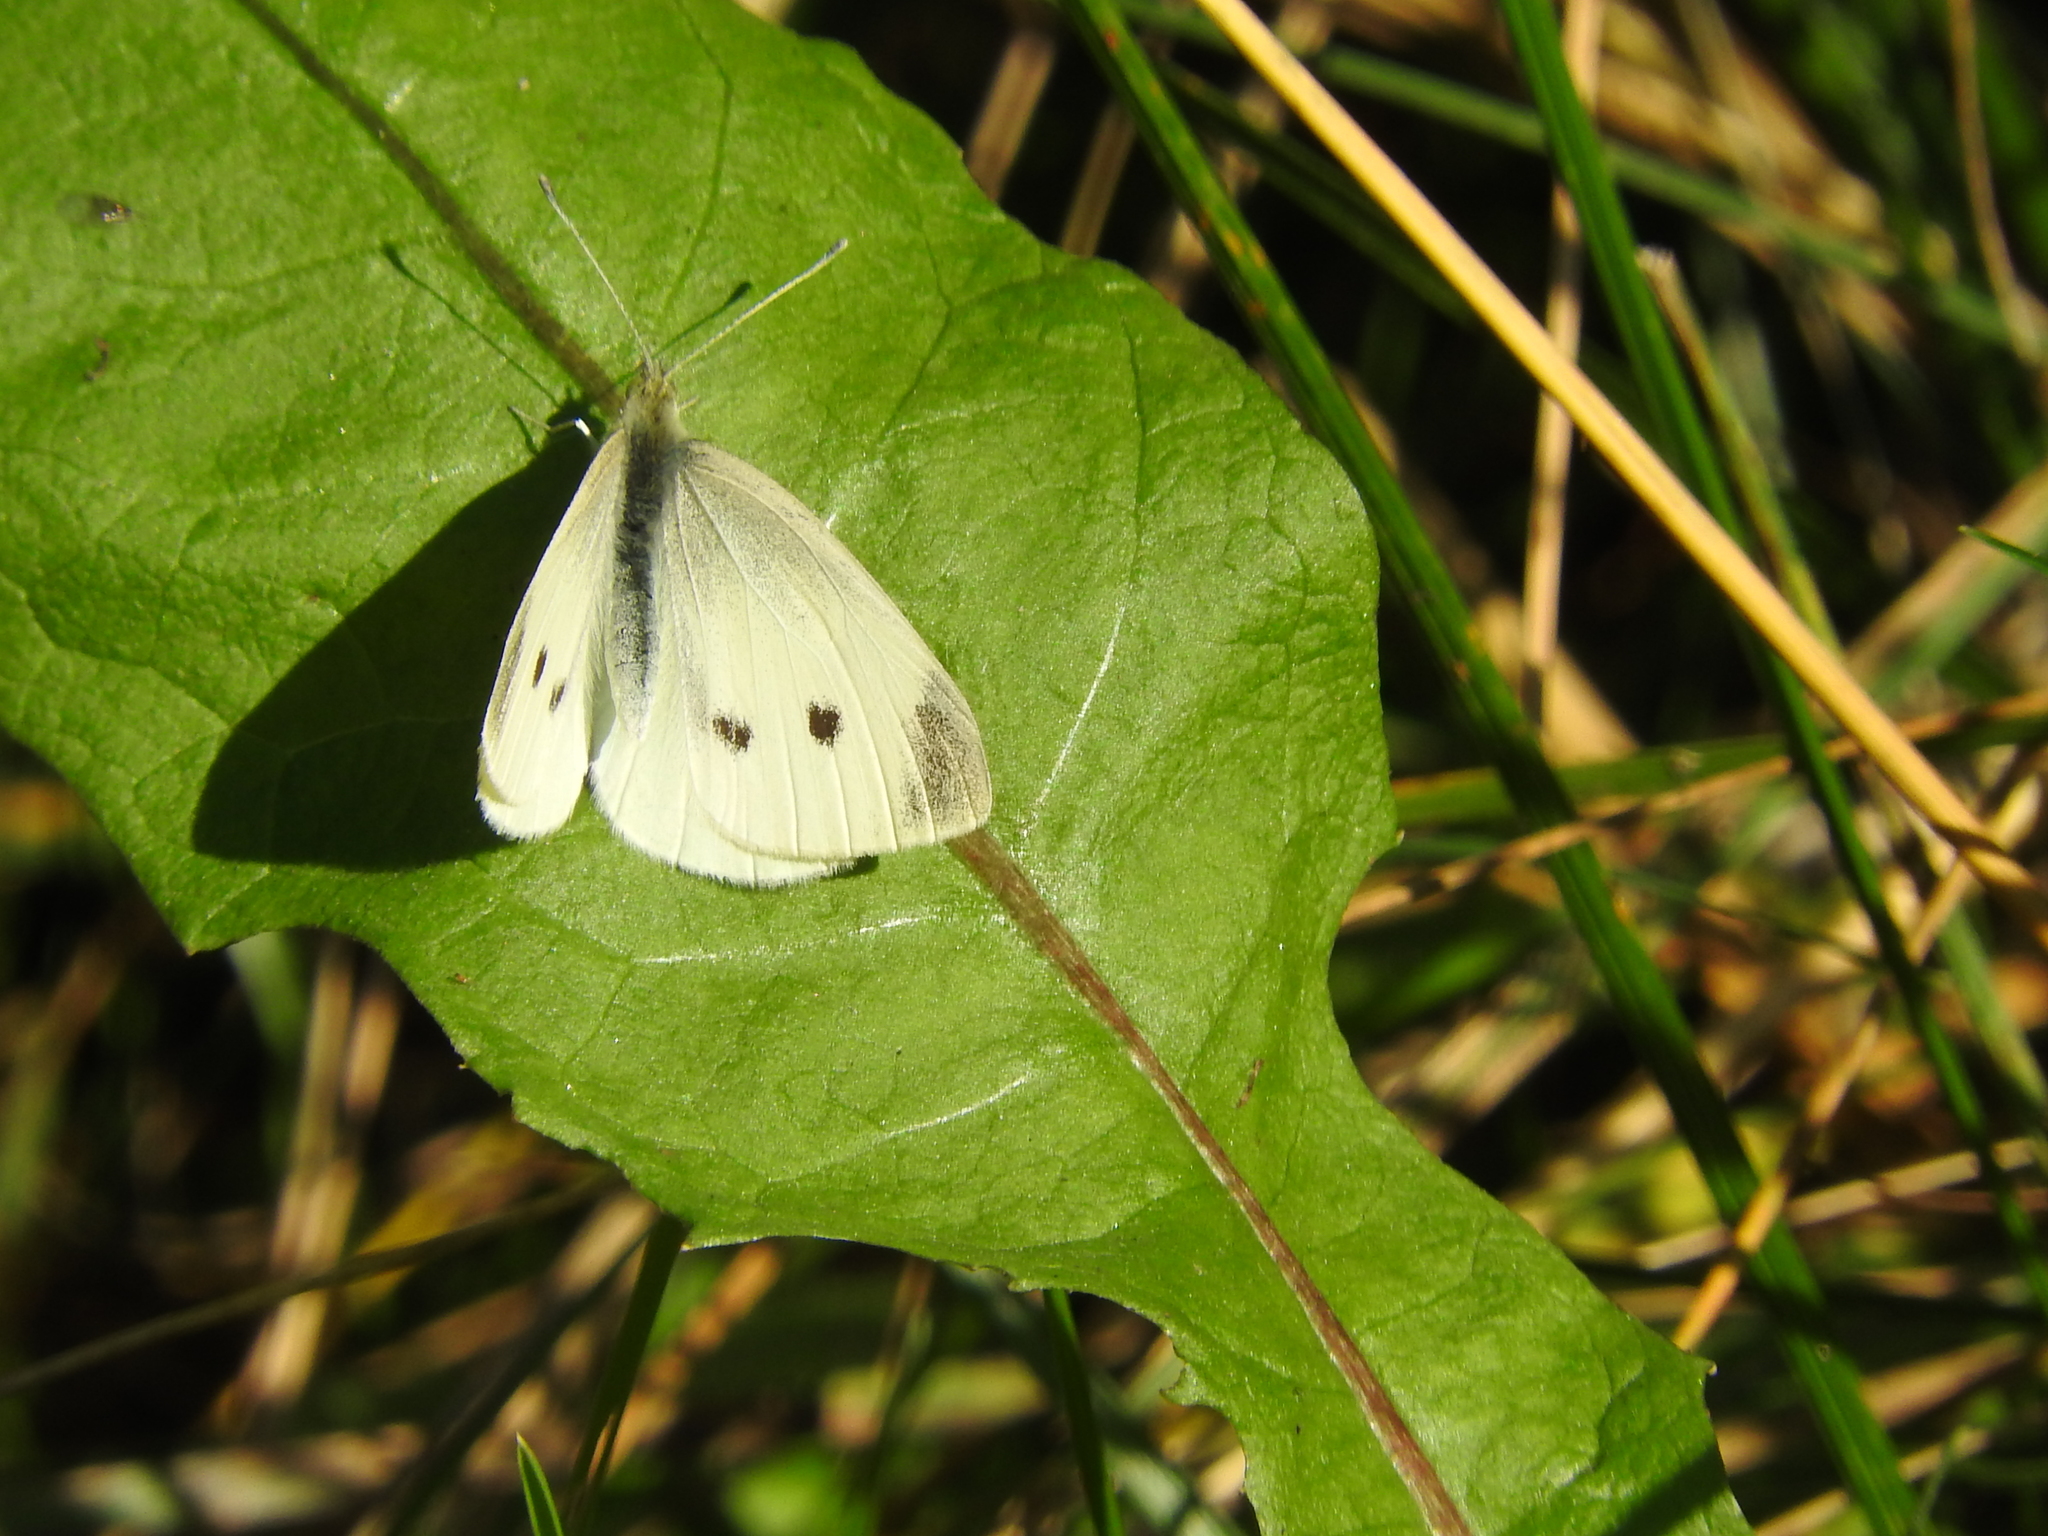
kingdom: Animalia
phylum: Arthropoda
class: Insecta
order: Lepidoptera
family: Pieridae
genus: Pieris
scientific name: Pieris rapae
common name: Small white
